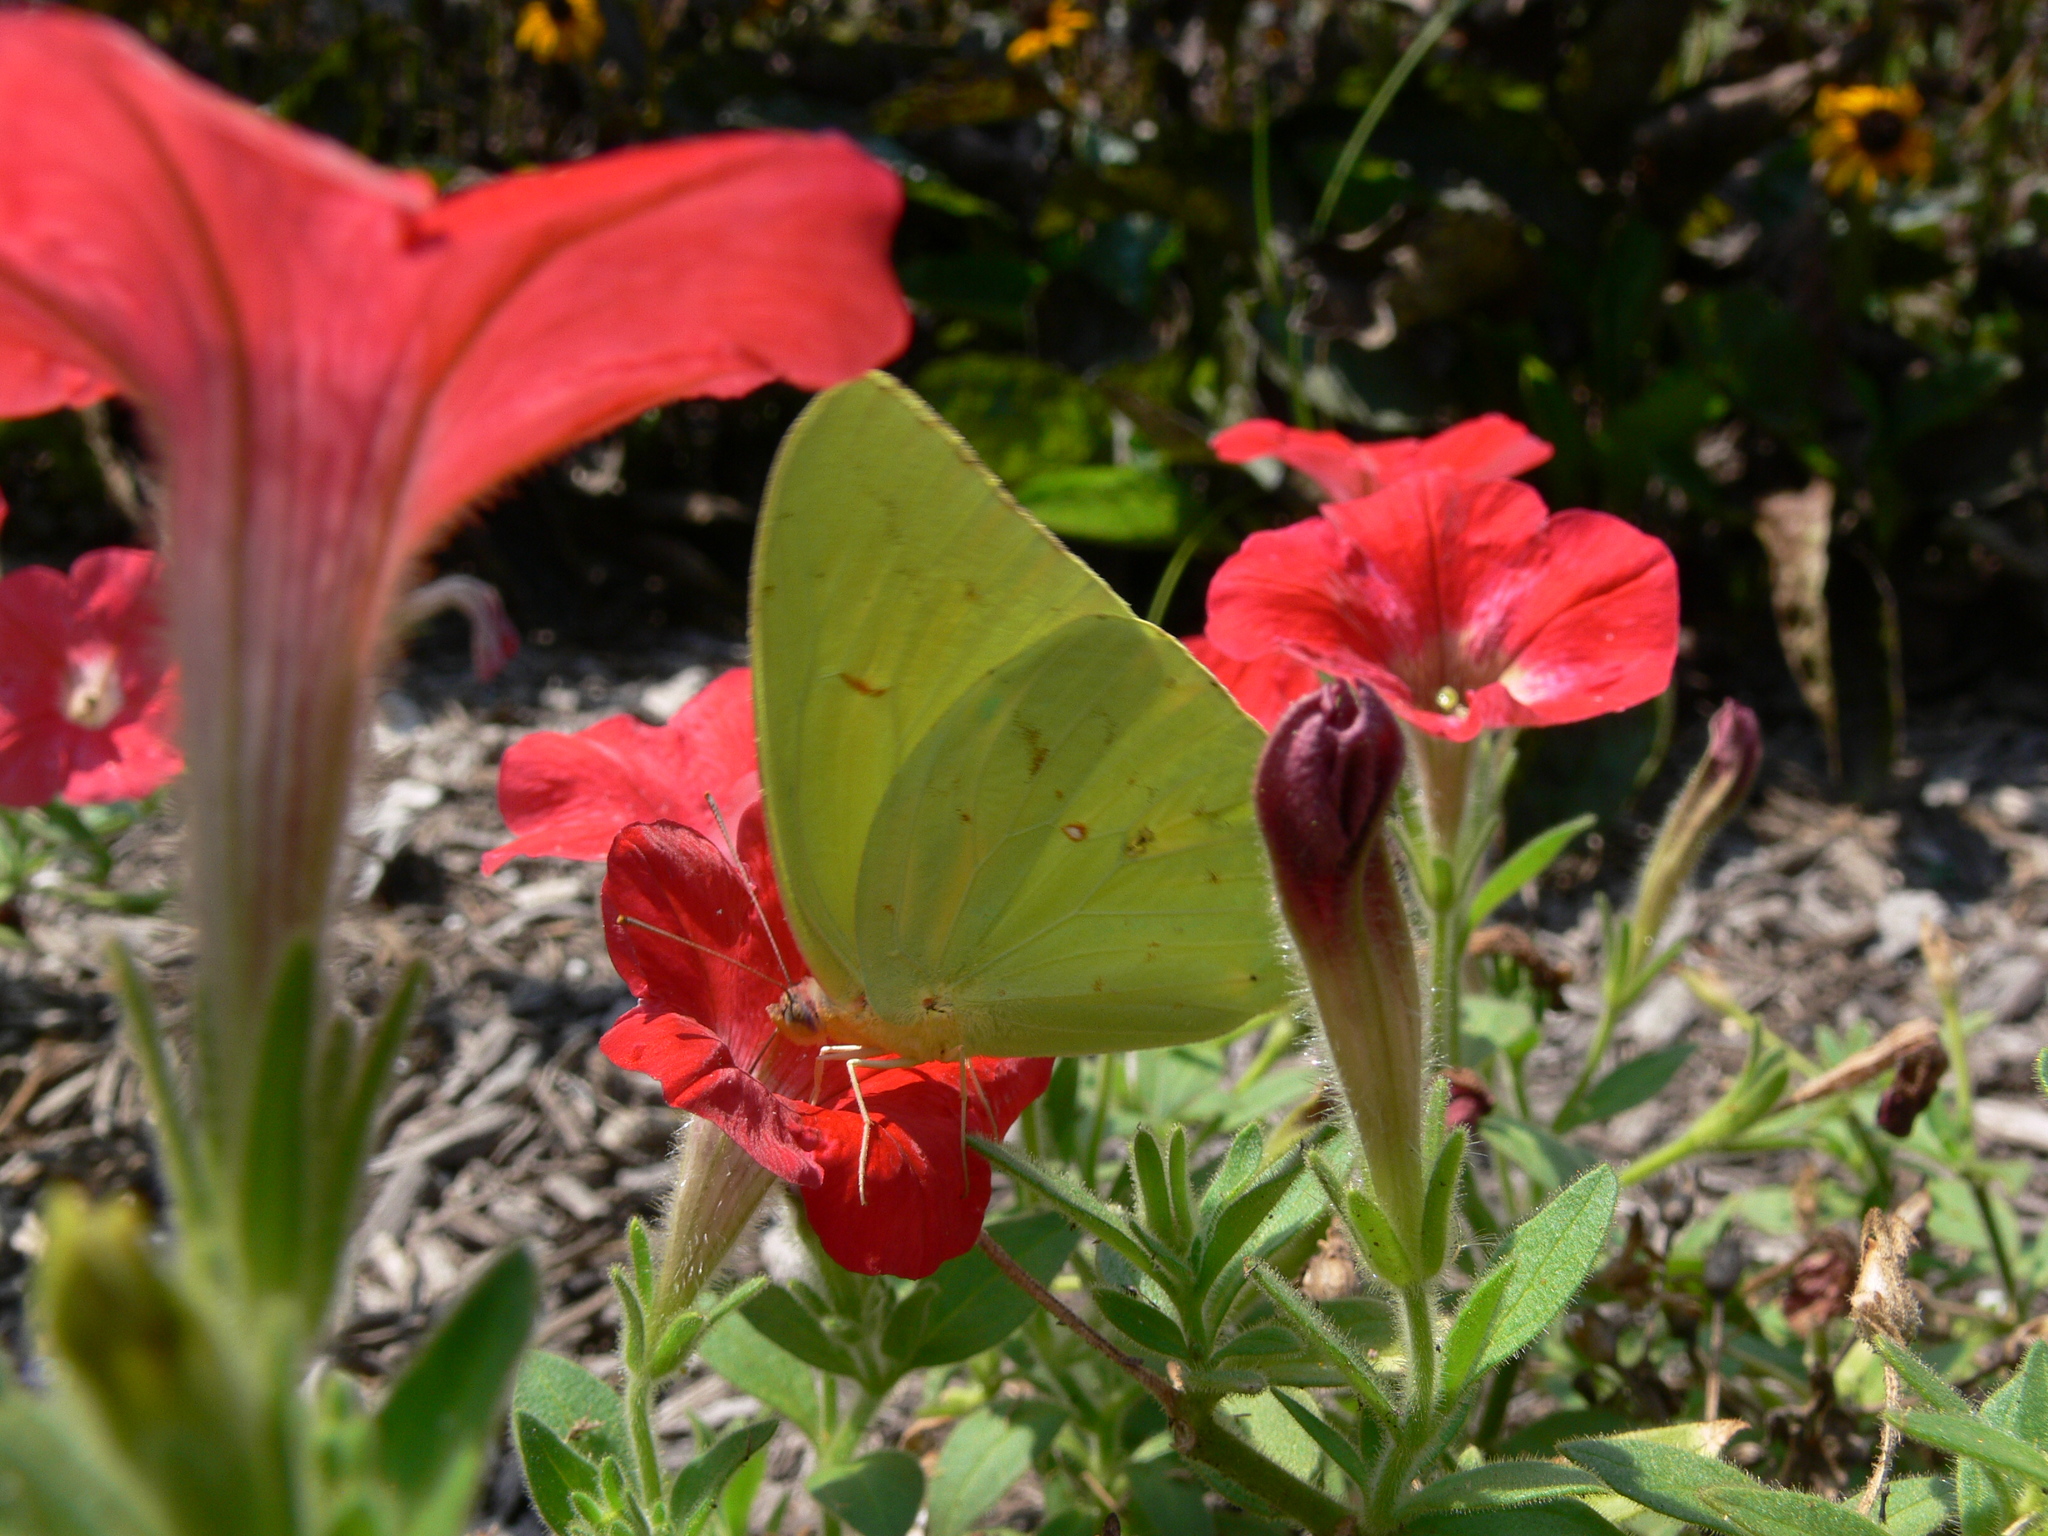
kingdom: Animalia
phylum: Arthropoda
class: Insecta
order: Lepidoptera
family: Pieridae
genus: Phoebis
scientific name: Phoebis sennae
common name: Cloudless sulphur
